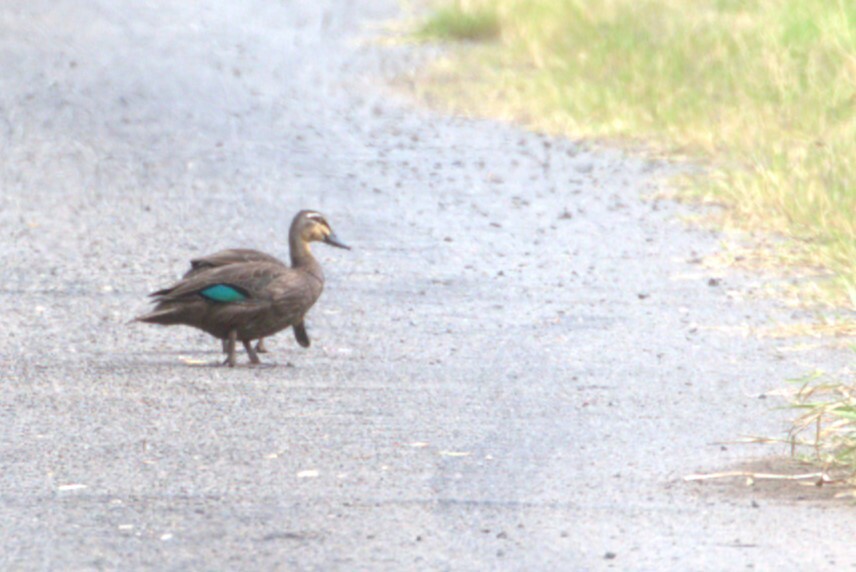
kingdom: Animalia
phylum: Chordata
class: Aves
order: Anseriformes
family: Anatidae
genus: Anas
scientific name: Anas superciliosa
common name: Pacific black duck
